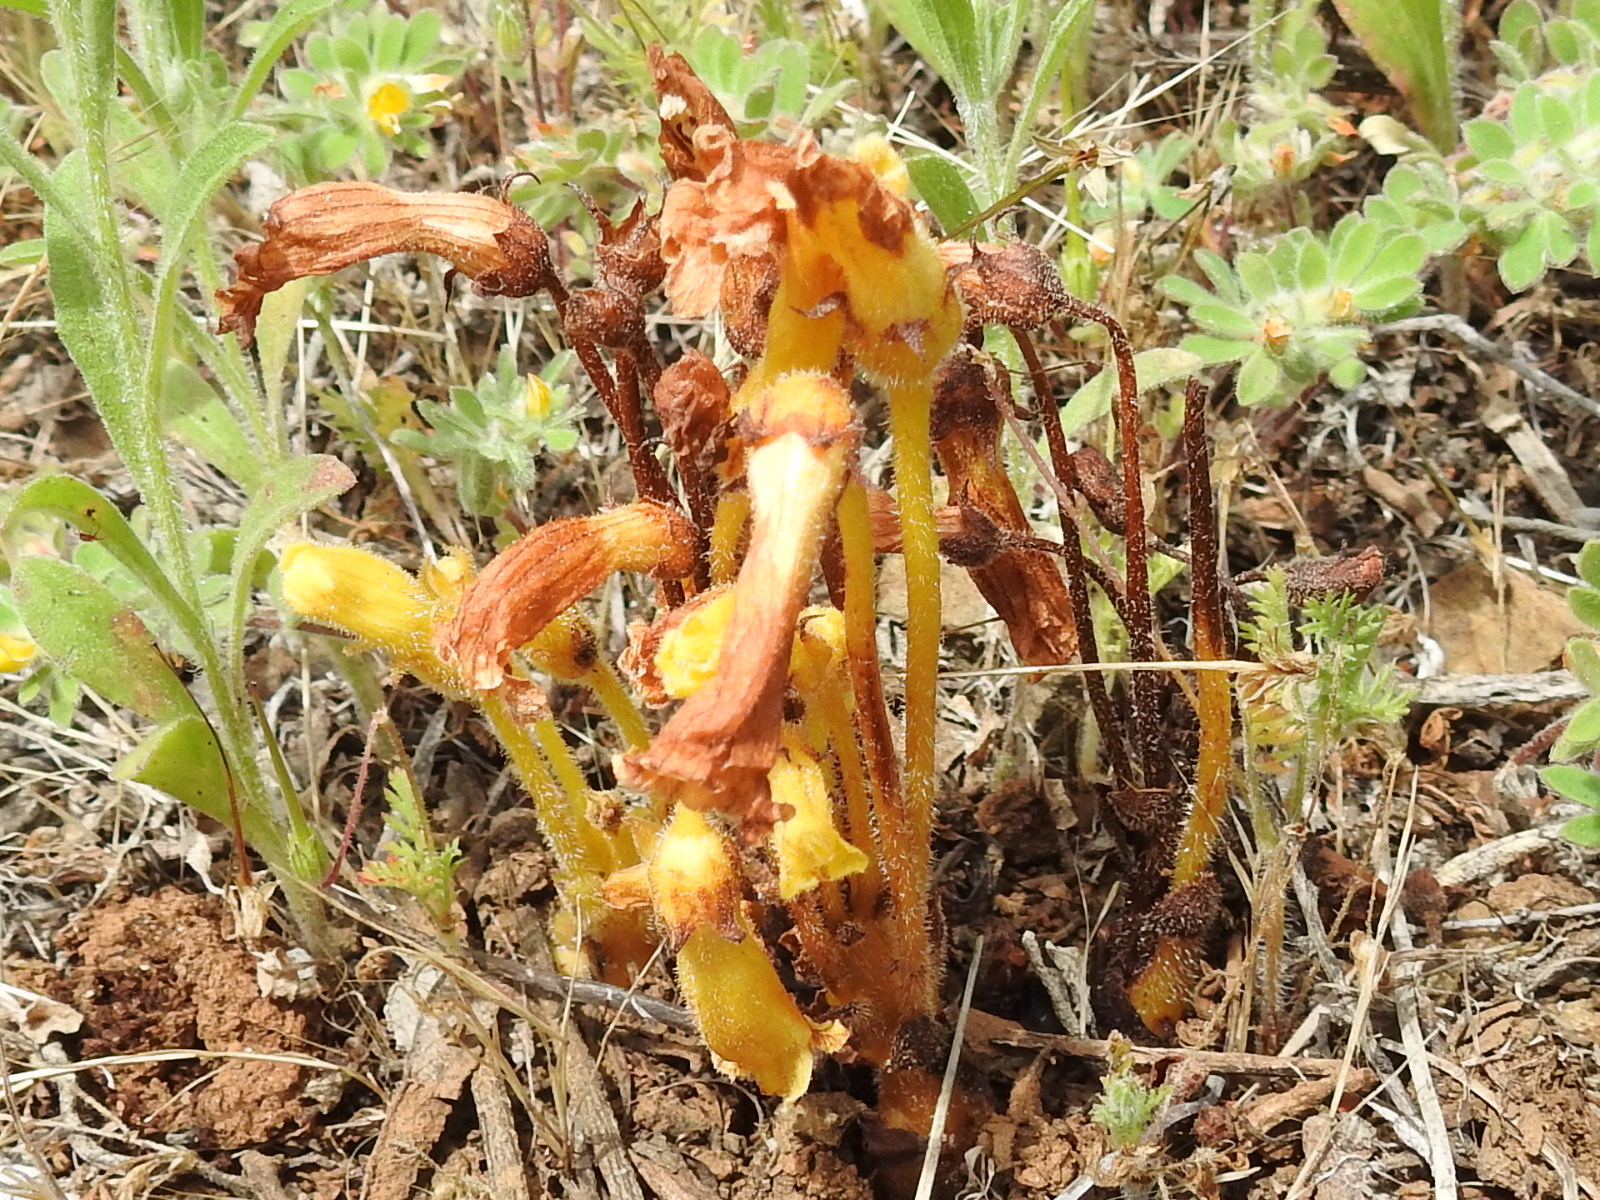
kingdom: Plantae
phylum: Tracheophyta
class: Magnoliopsida
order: Lamiales
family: Orobanchaceae
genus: Aphyllon
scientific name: Aphyllon franciscanum
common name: San francisco broomrape
